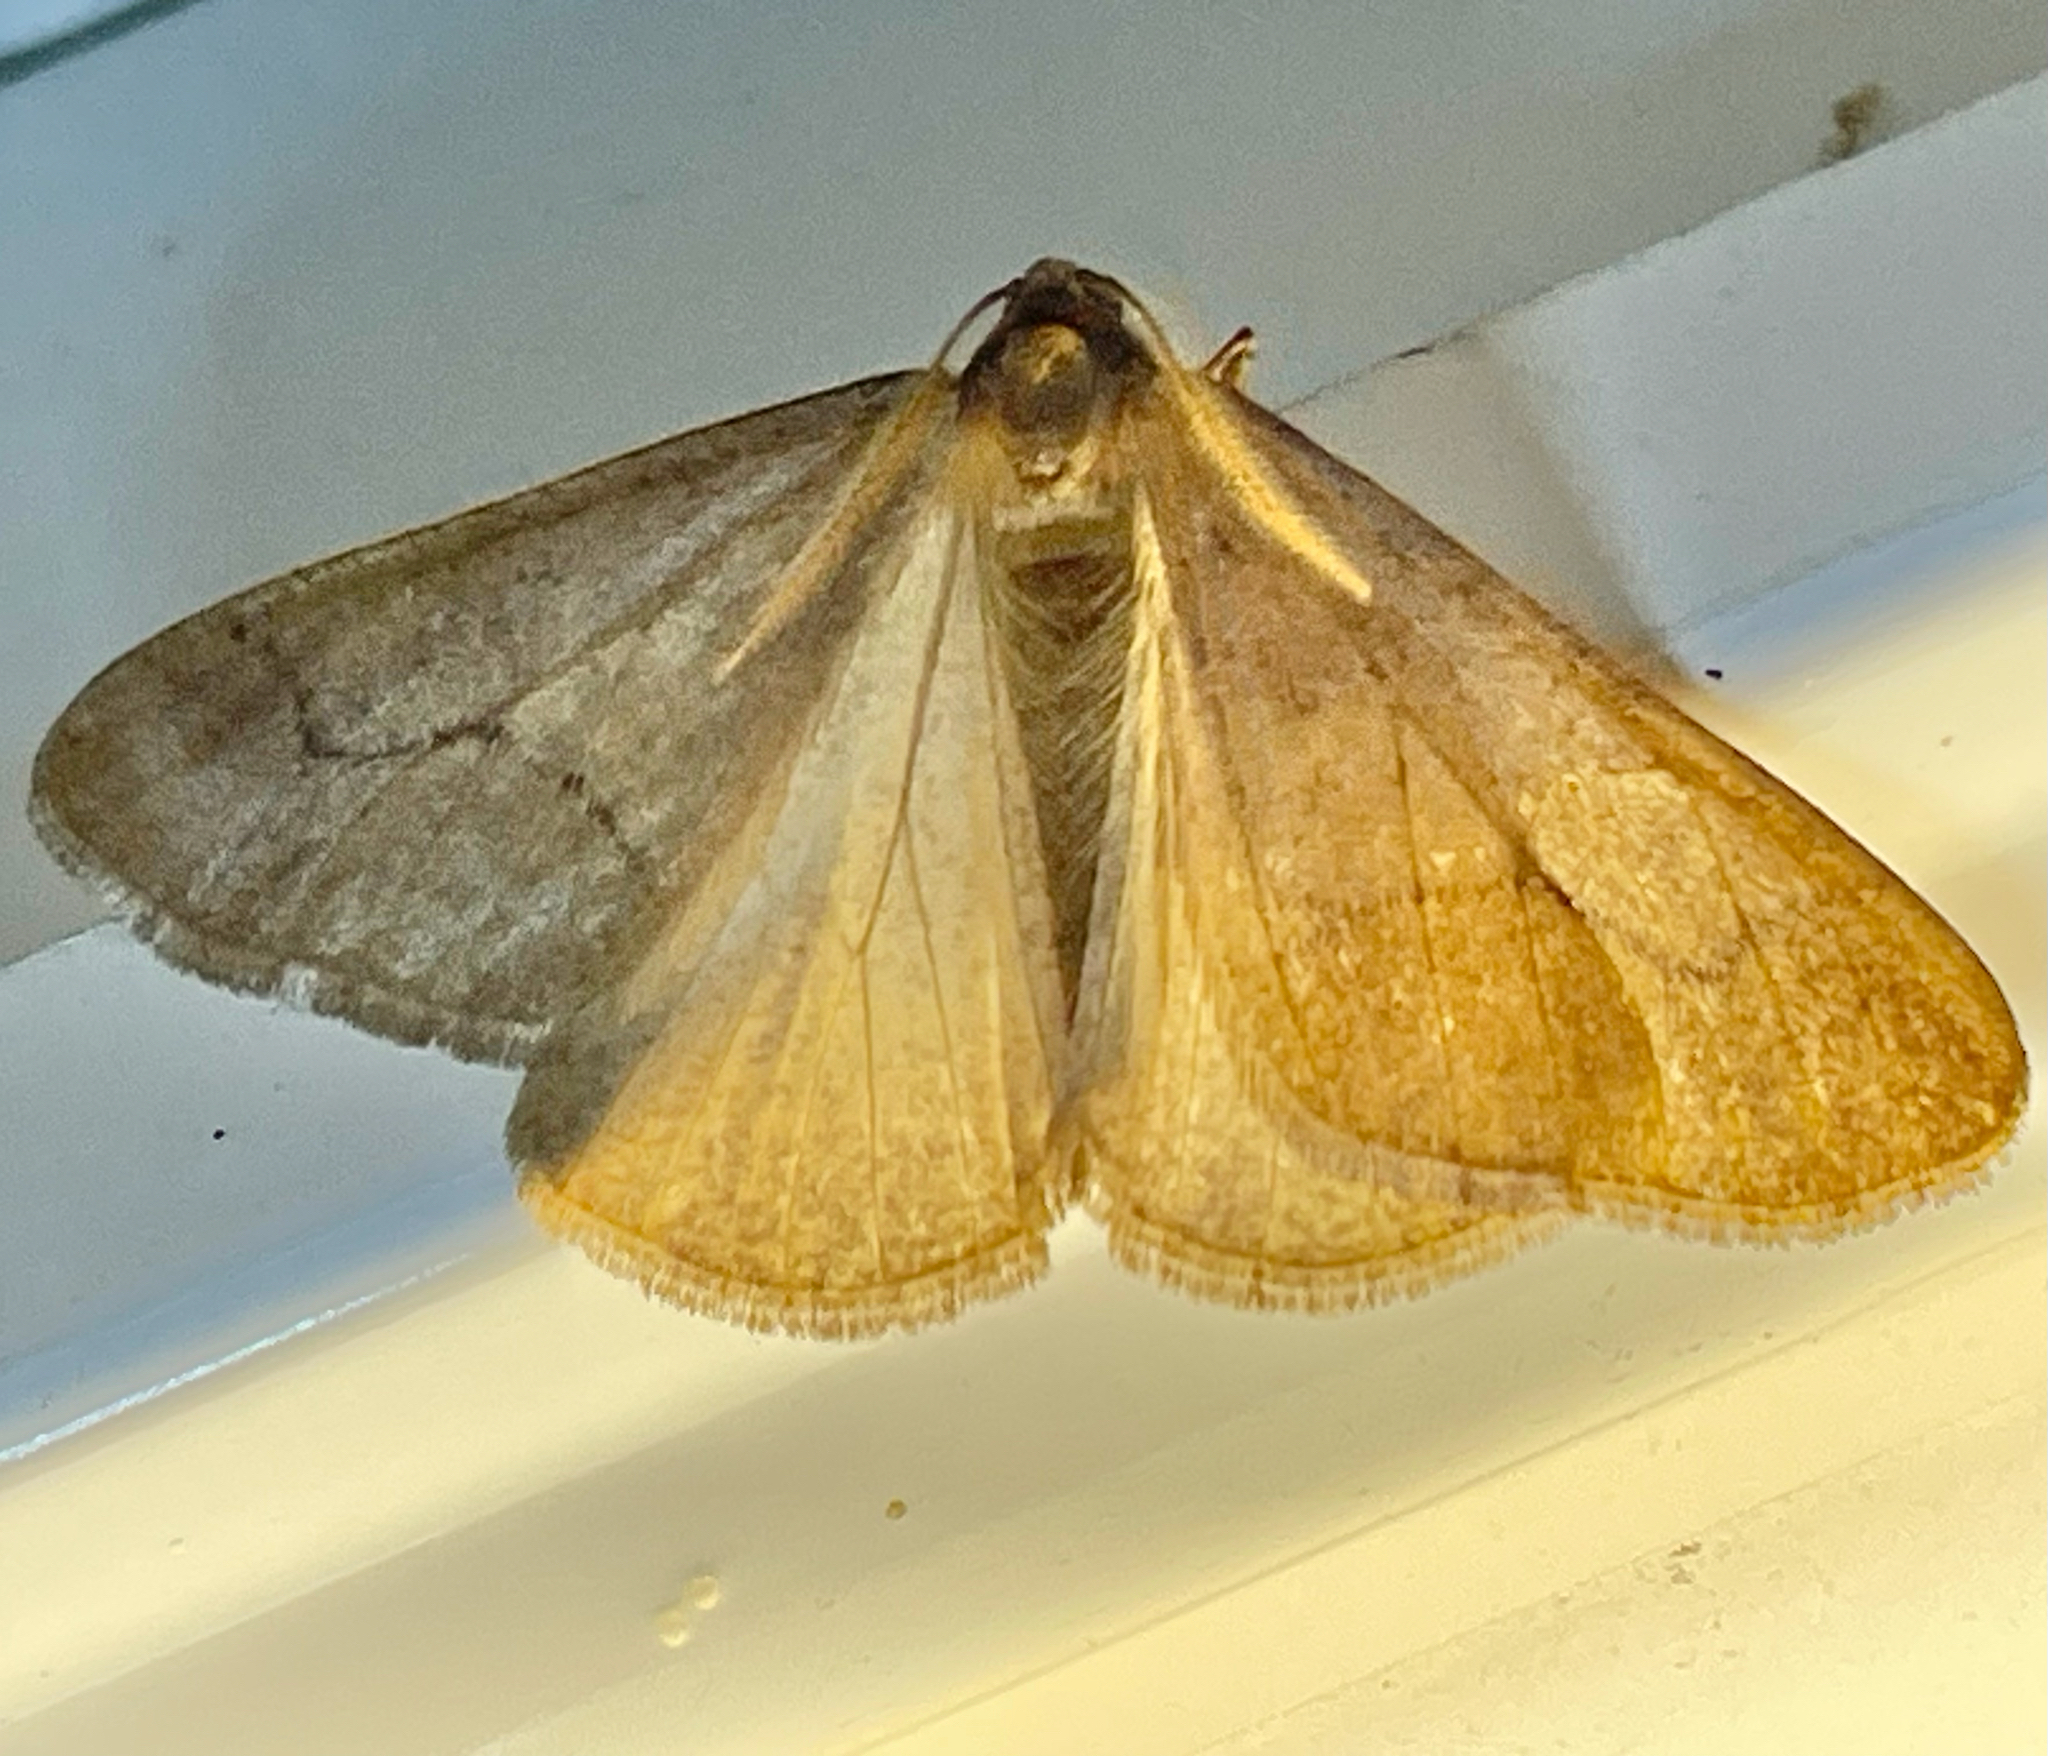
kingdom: Animalia
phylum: Arthropoda
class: Insecta
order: Lepidoptera
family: Geometridae
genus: Erannis
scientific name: Erannis tiliaria
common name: Linden looper
